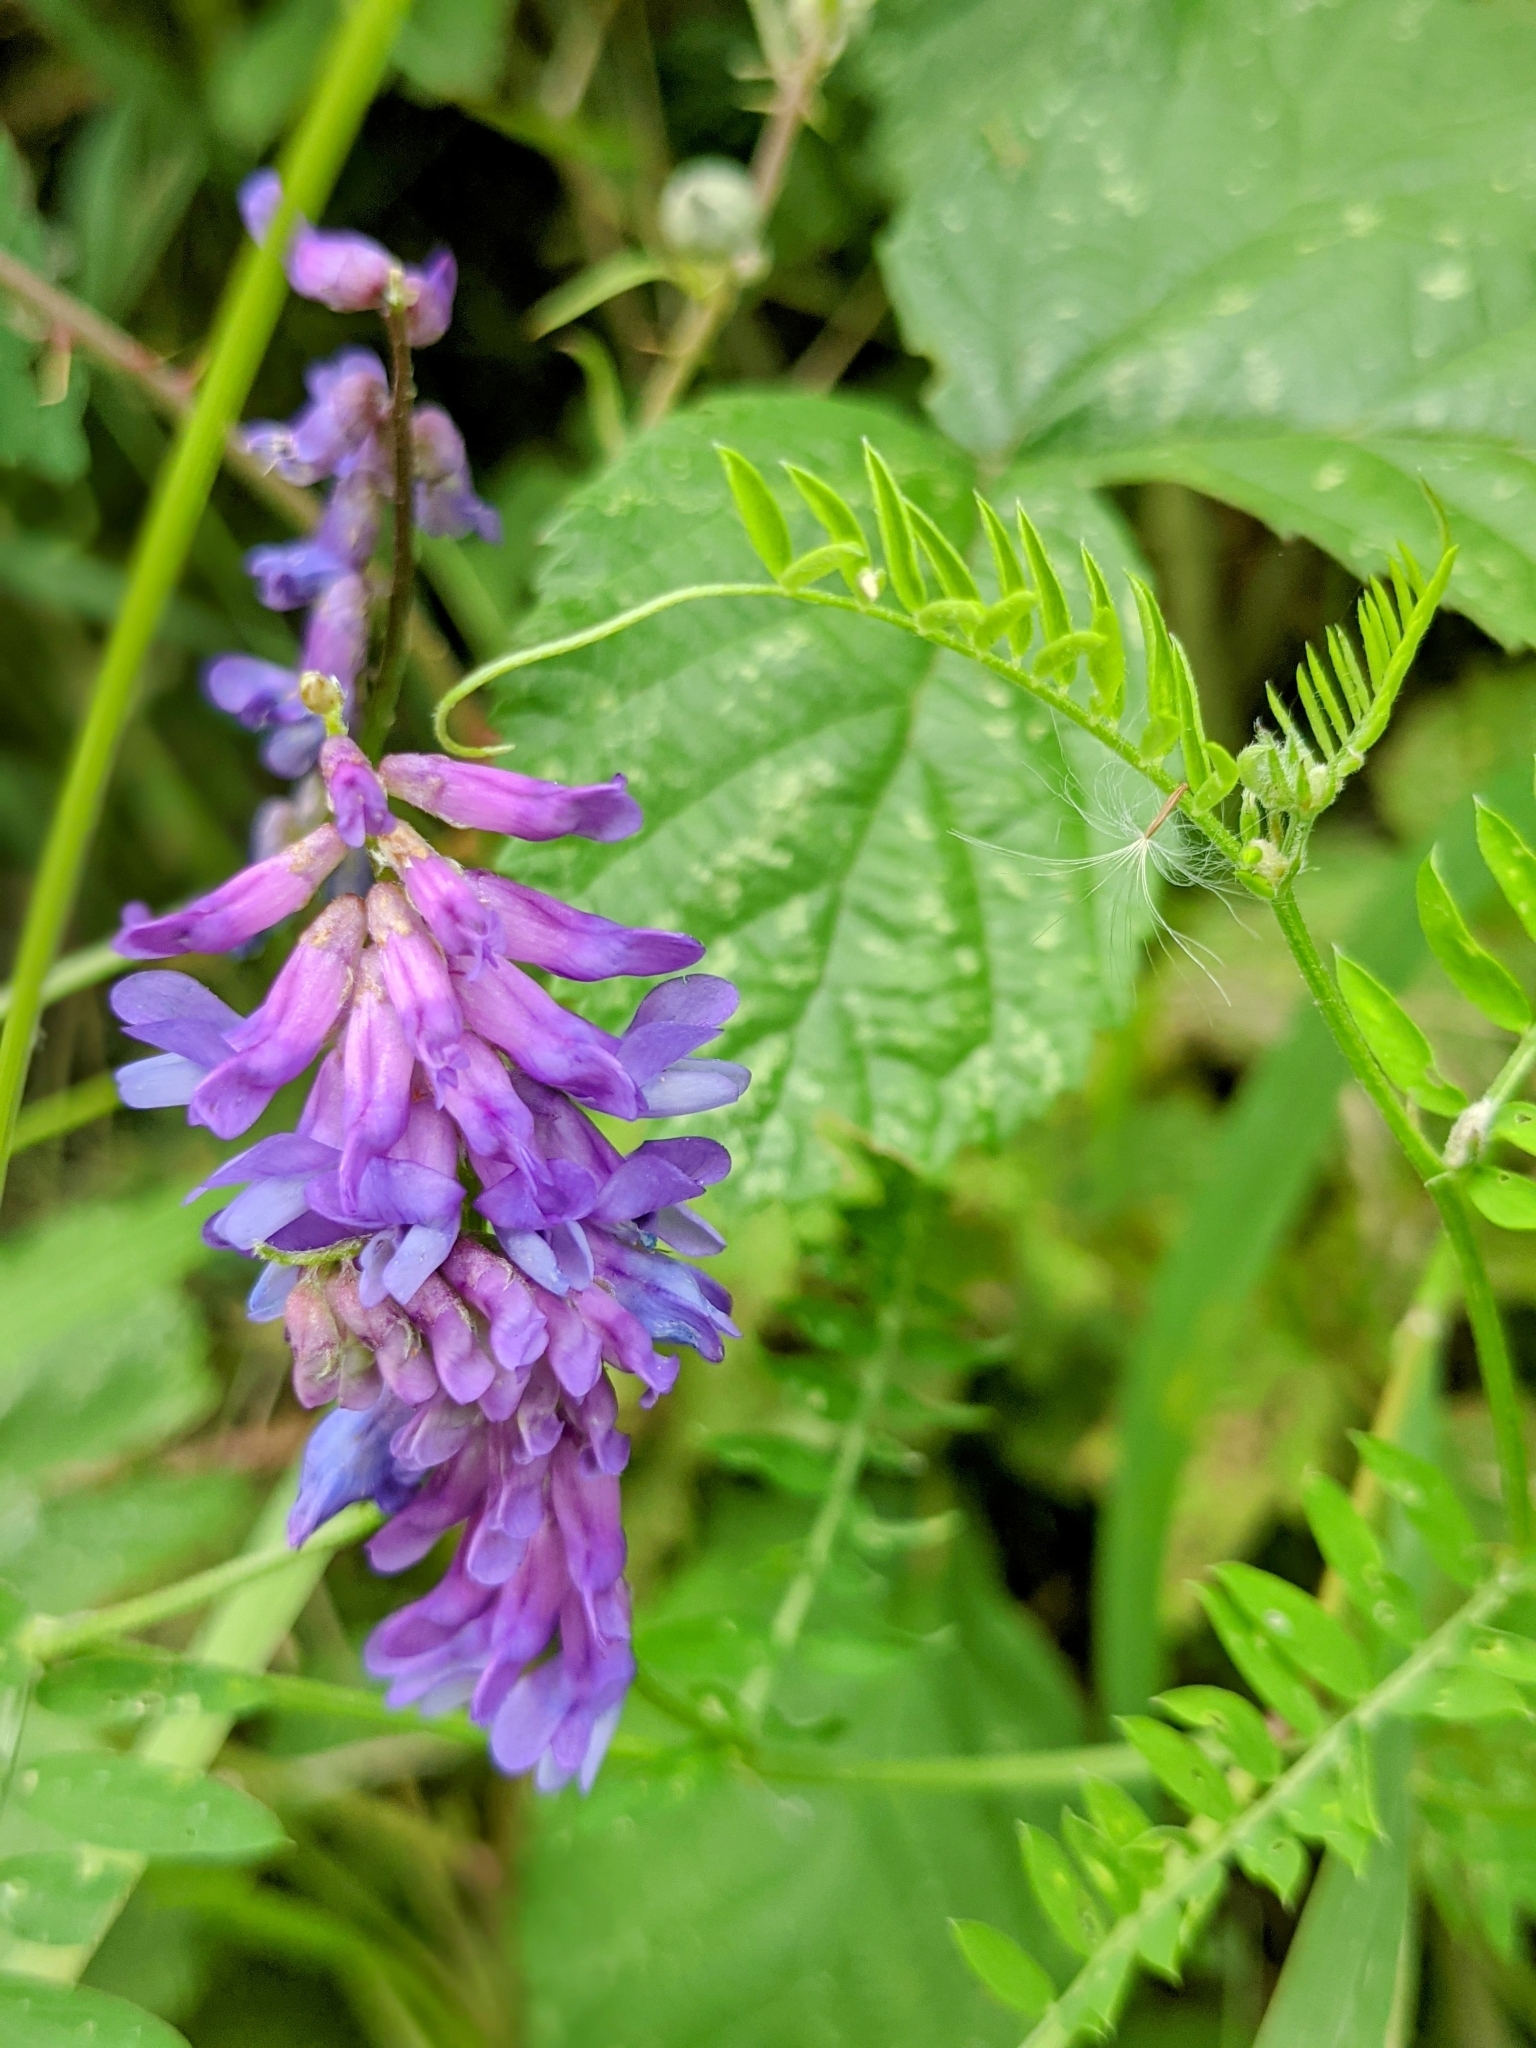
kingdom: Plantae
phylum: Tracheophyta
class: Magnoliopsida
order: Fabales
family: Fabaceae
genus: Vicia
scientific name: Vicia cracca
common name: Bird vetch
